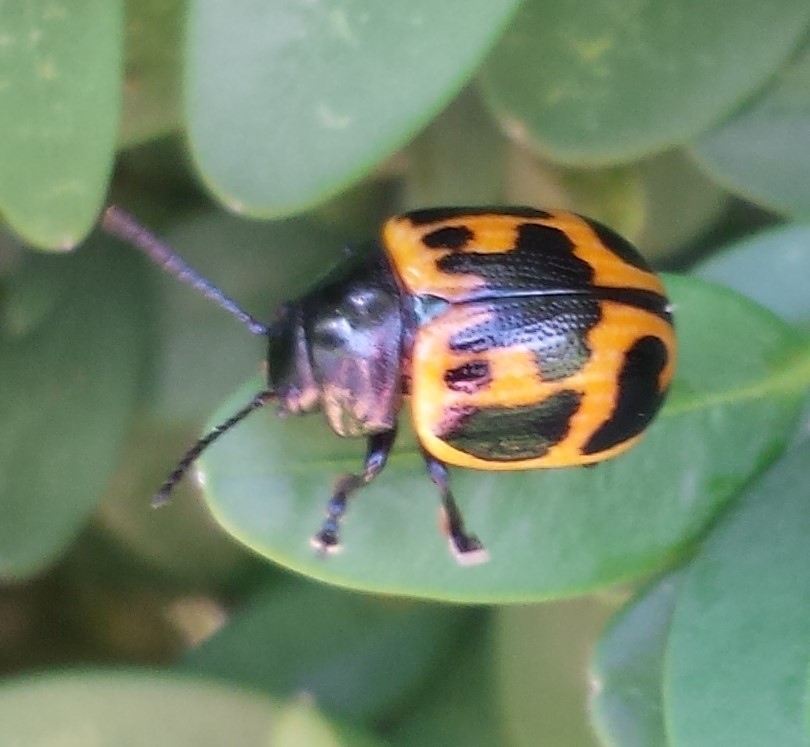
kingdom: Animalia
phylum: Arthropoda
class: Insecta
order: Coleoptera
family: Chrysomelidae
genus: Labidomera
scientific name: Labidomera clivicollis
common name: Swamp milkweed leaf beetle
